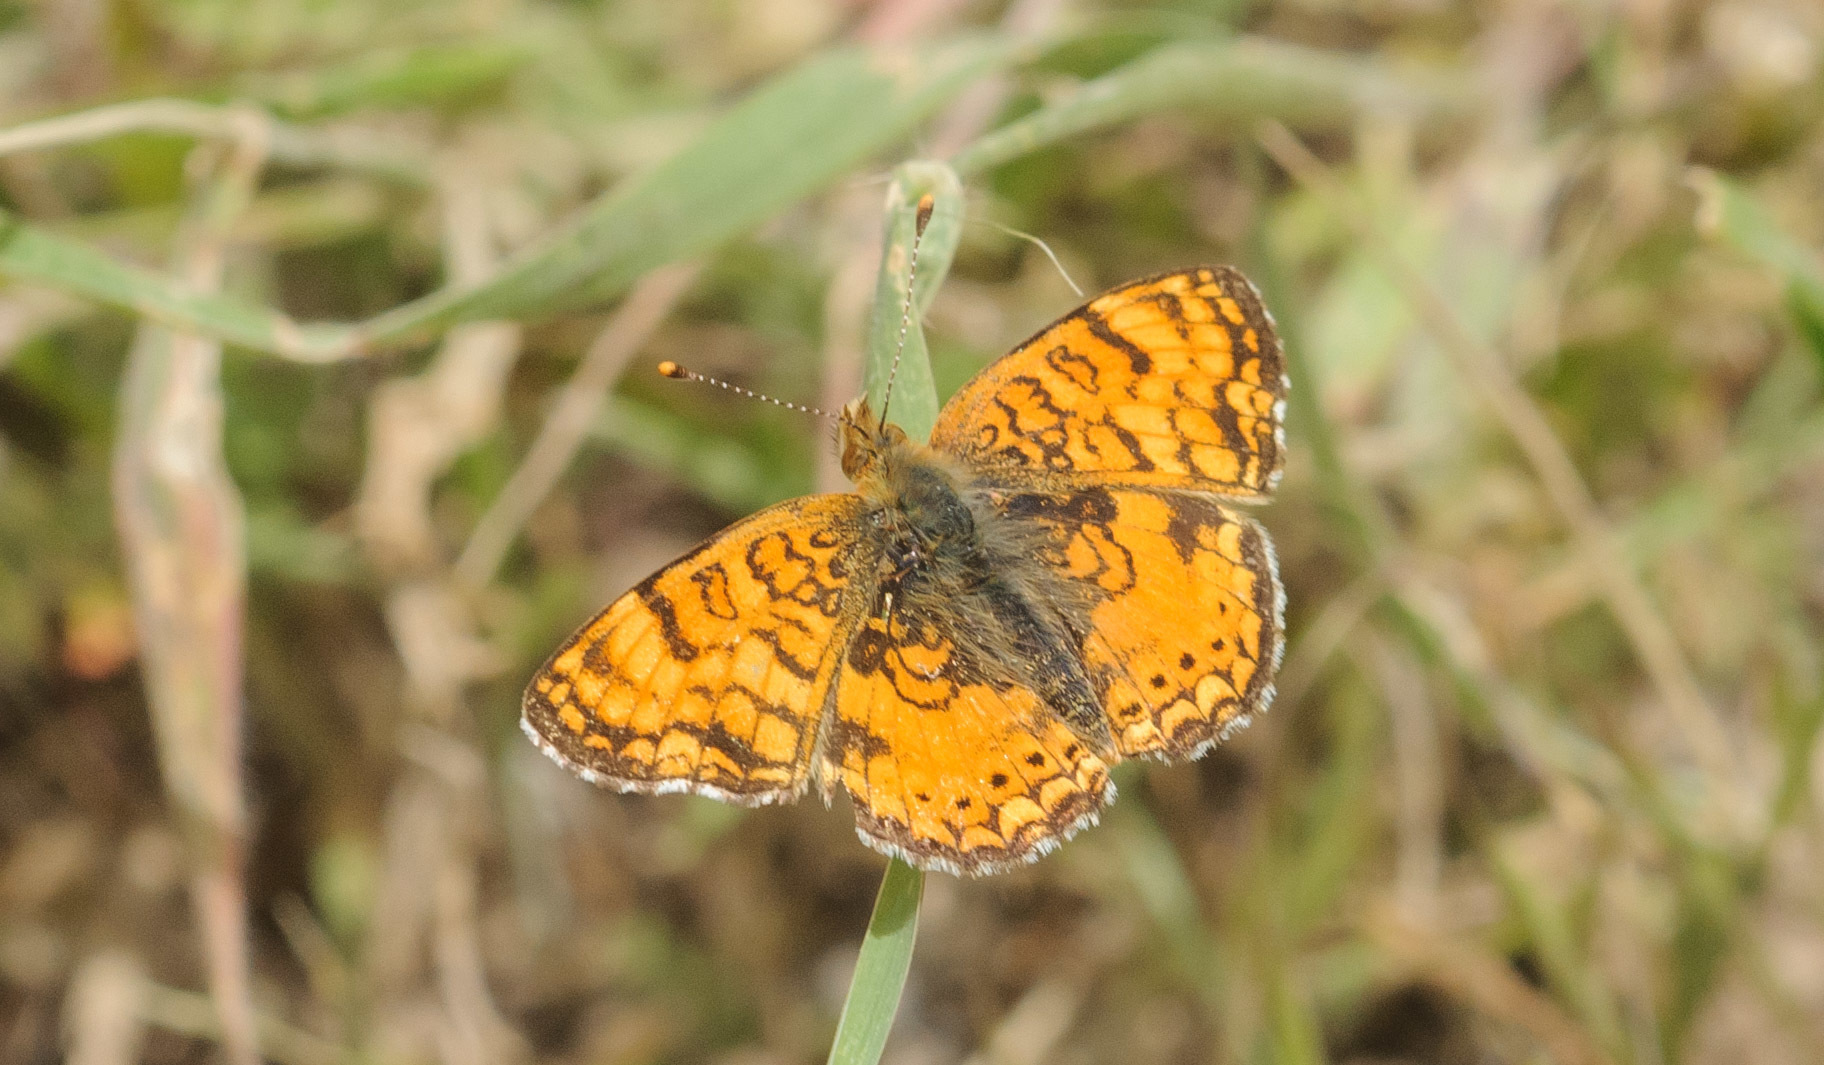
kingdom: Animalia
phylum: Arthropoda
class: Insecta
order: Lepidoptera
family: Nymphalidae
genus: Eresia
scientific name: Eresia aveyrona
